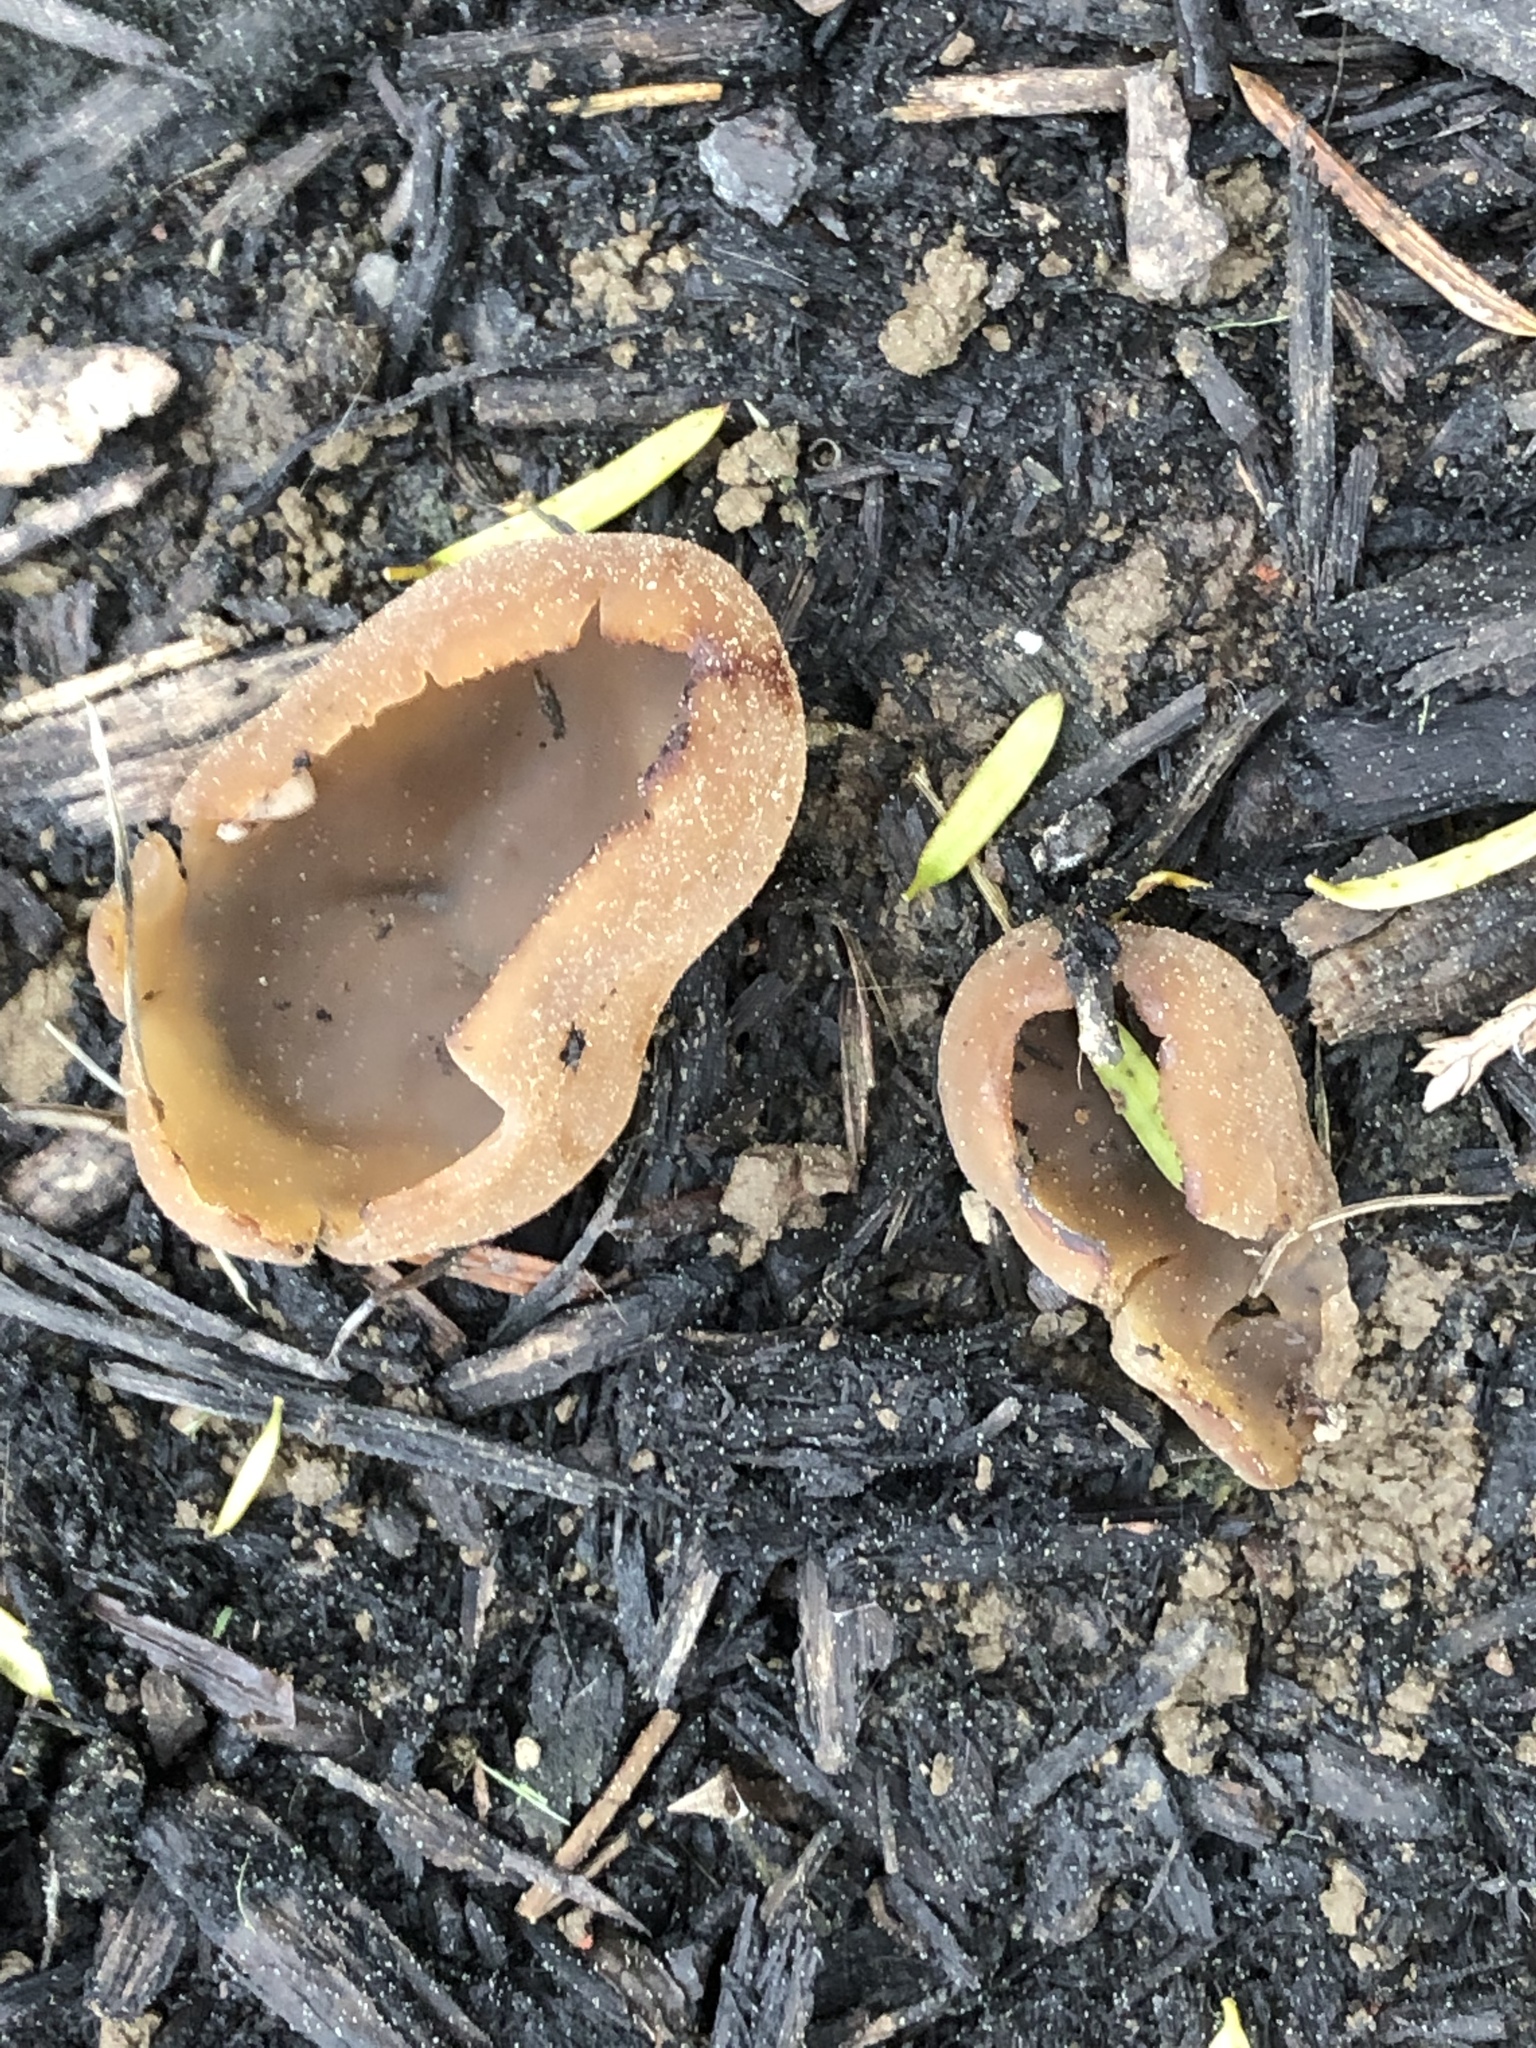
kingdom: Fungi
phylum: Ascomycota
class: Pezizomycetes
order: Pezizales
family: Pezizaceae
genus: Peziza
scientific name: Peziza varia
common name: Layered cup
